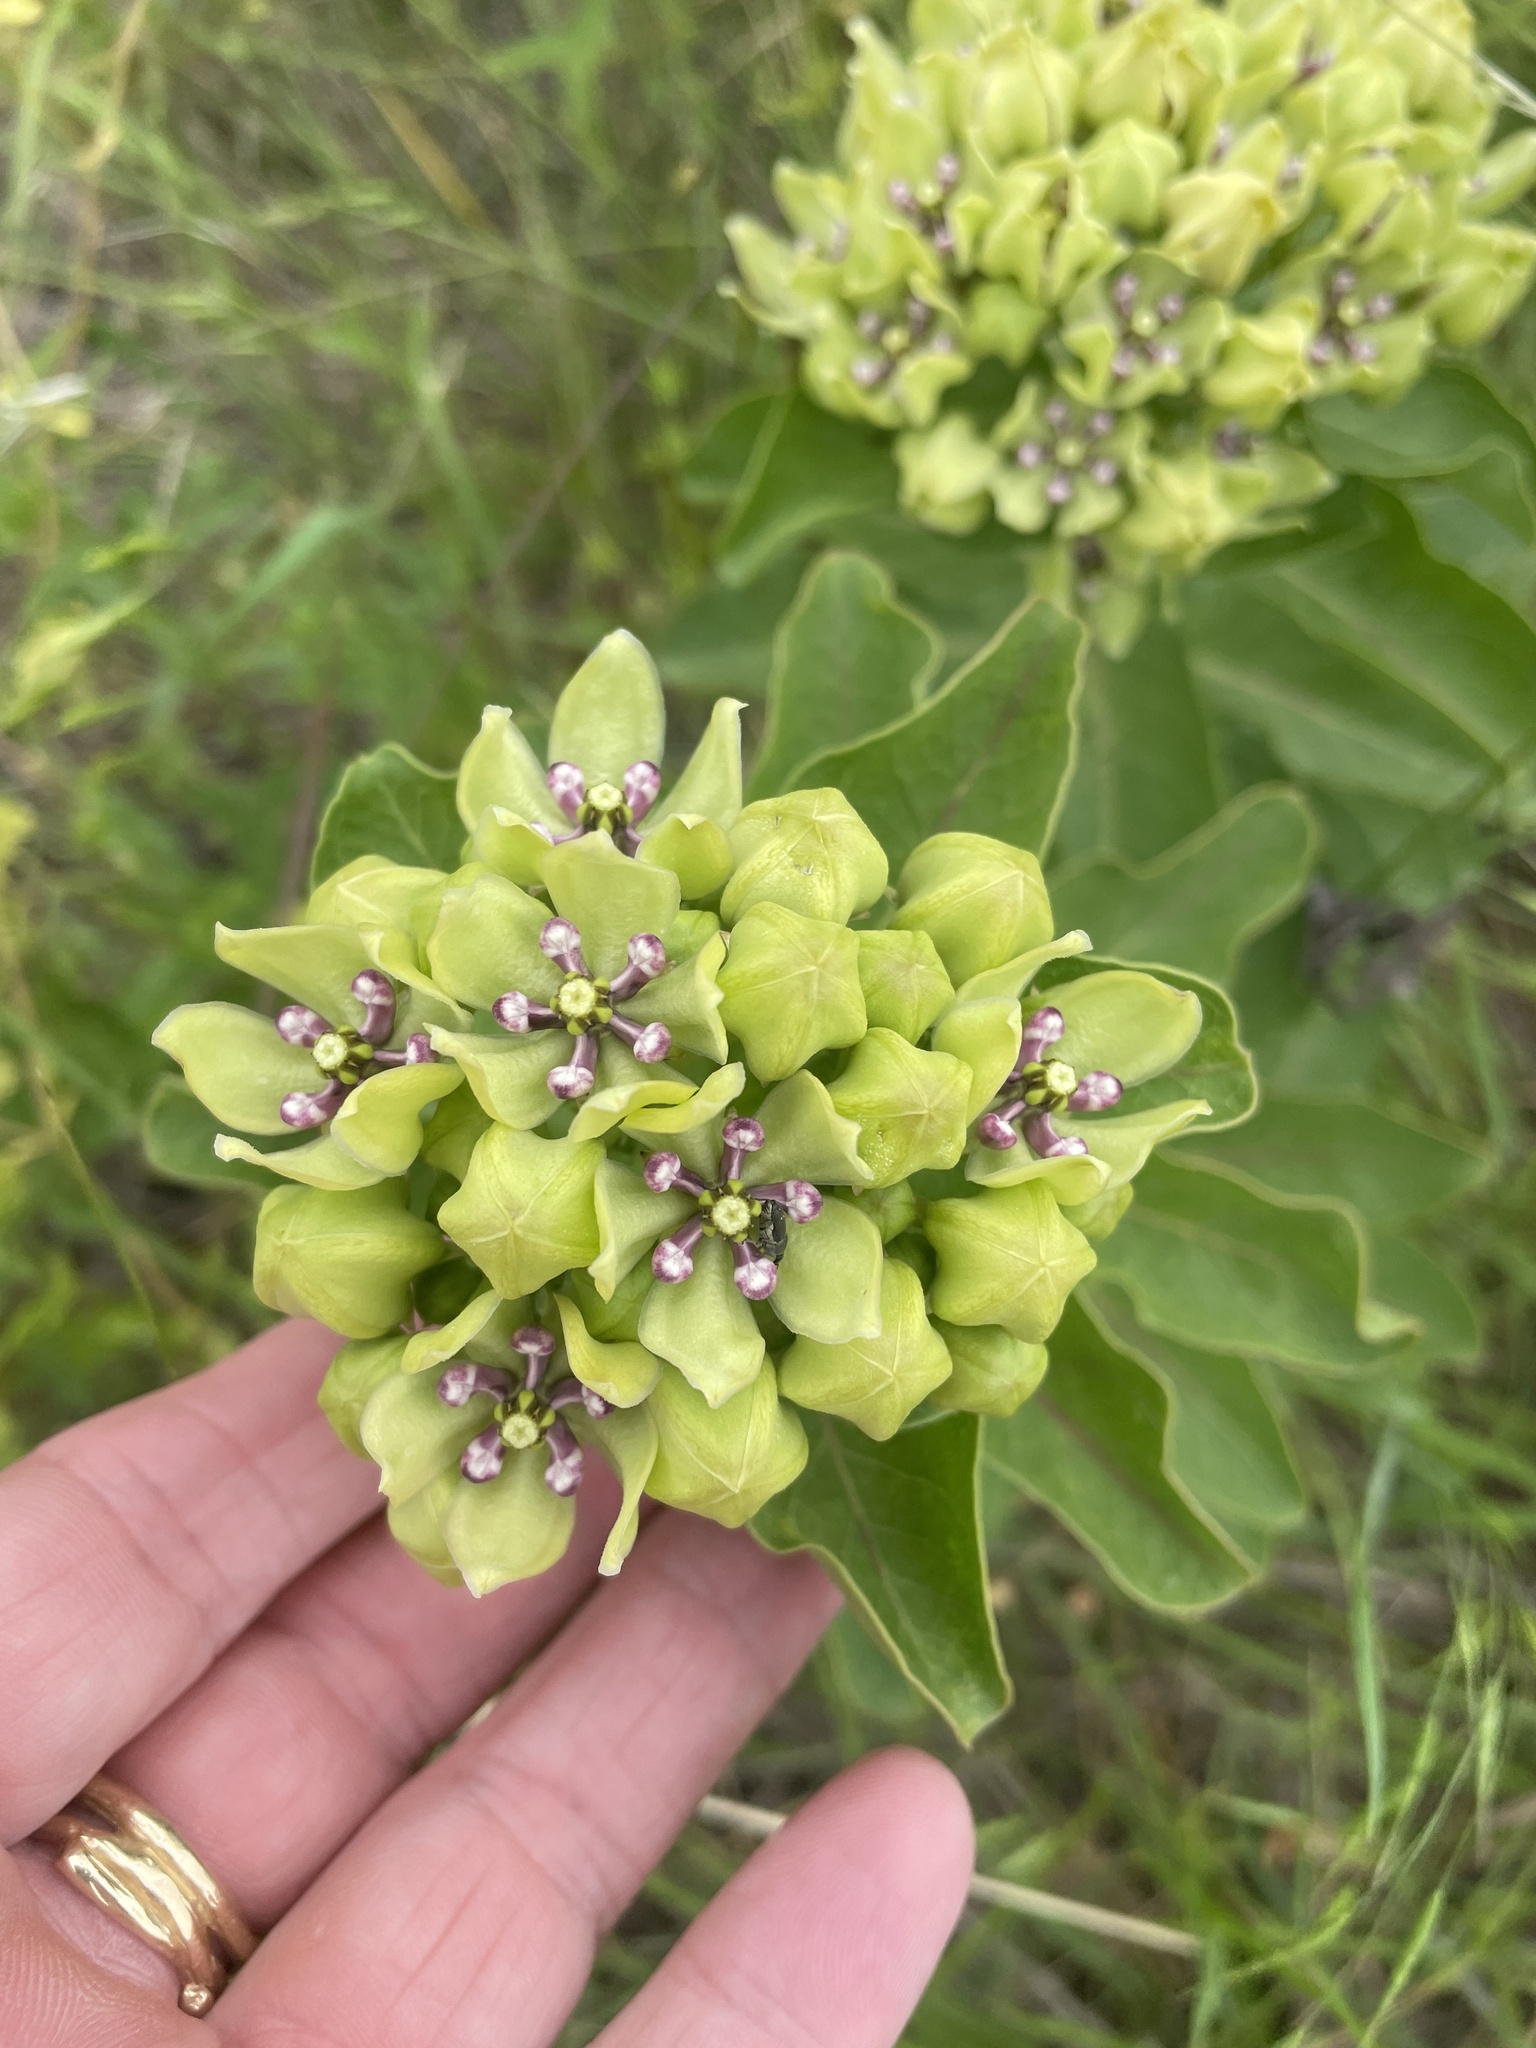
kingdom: Plantae
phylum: Tracheophyta
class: Magnoliopsida
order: Gentianales
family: Apocynaceae
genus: Asclepias
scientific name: Asclepias viridis
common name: Antelope-horns
